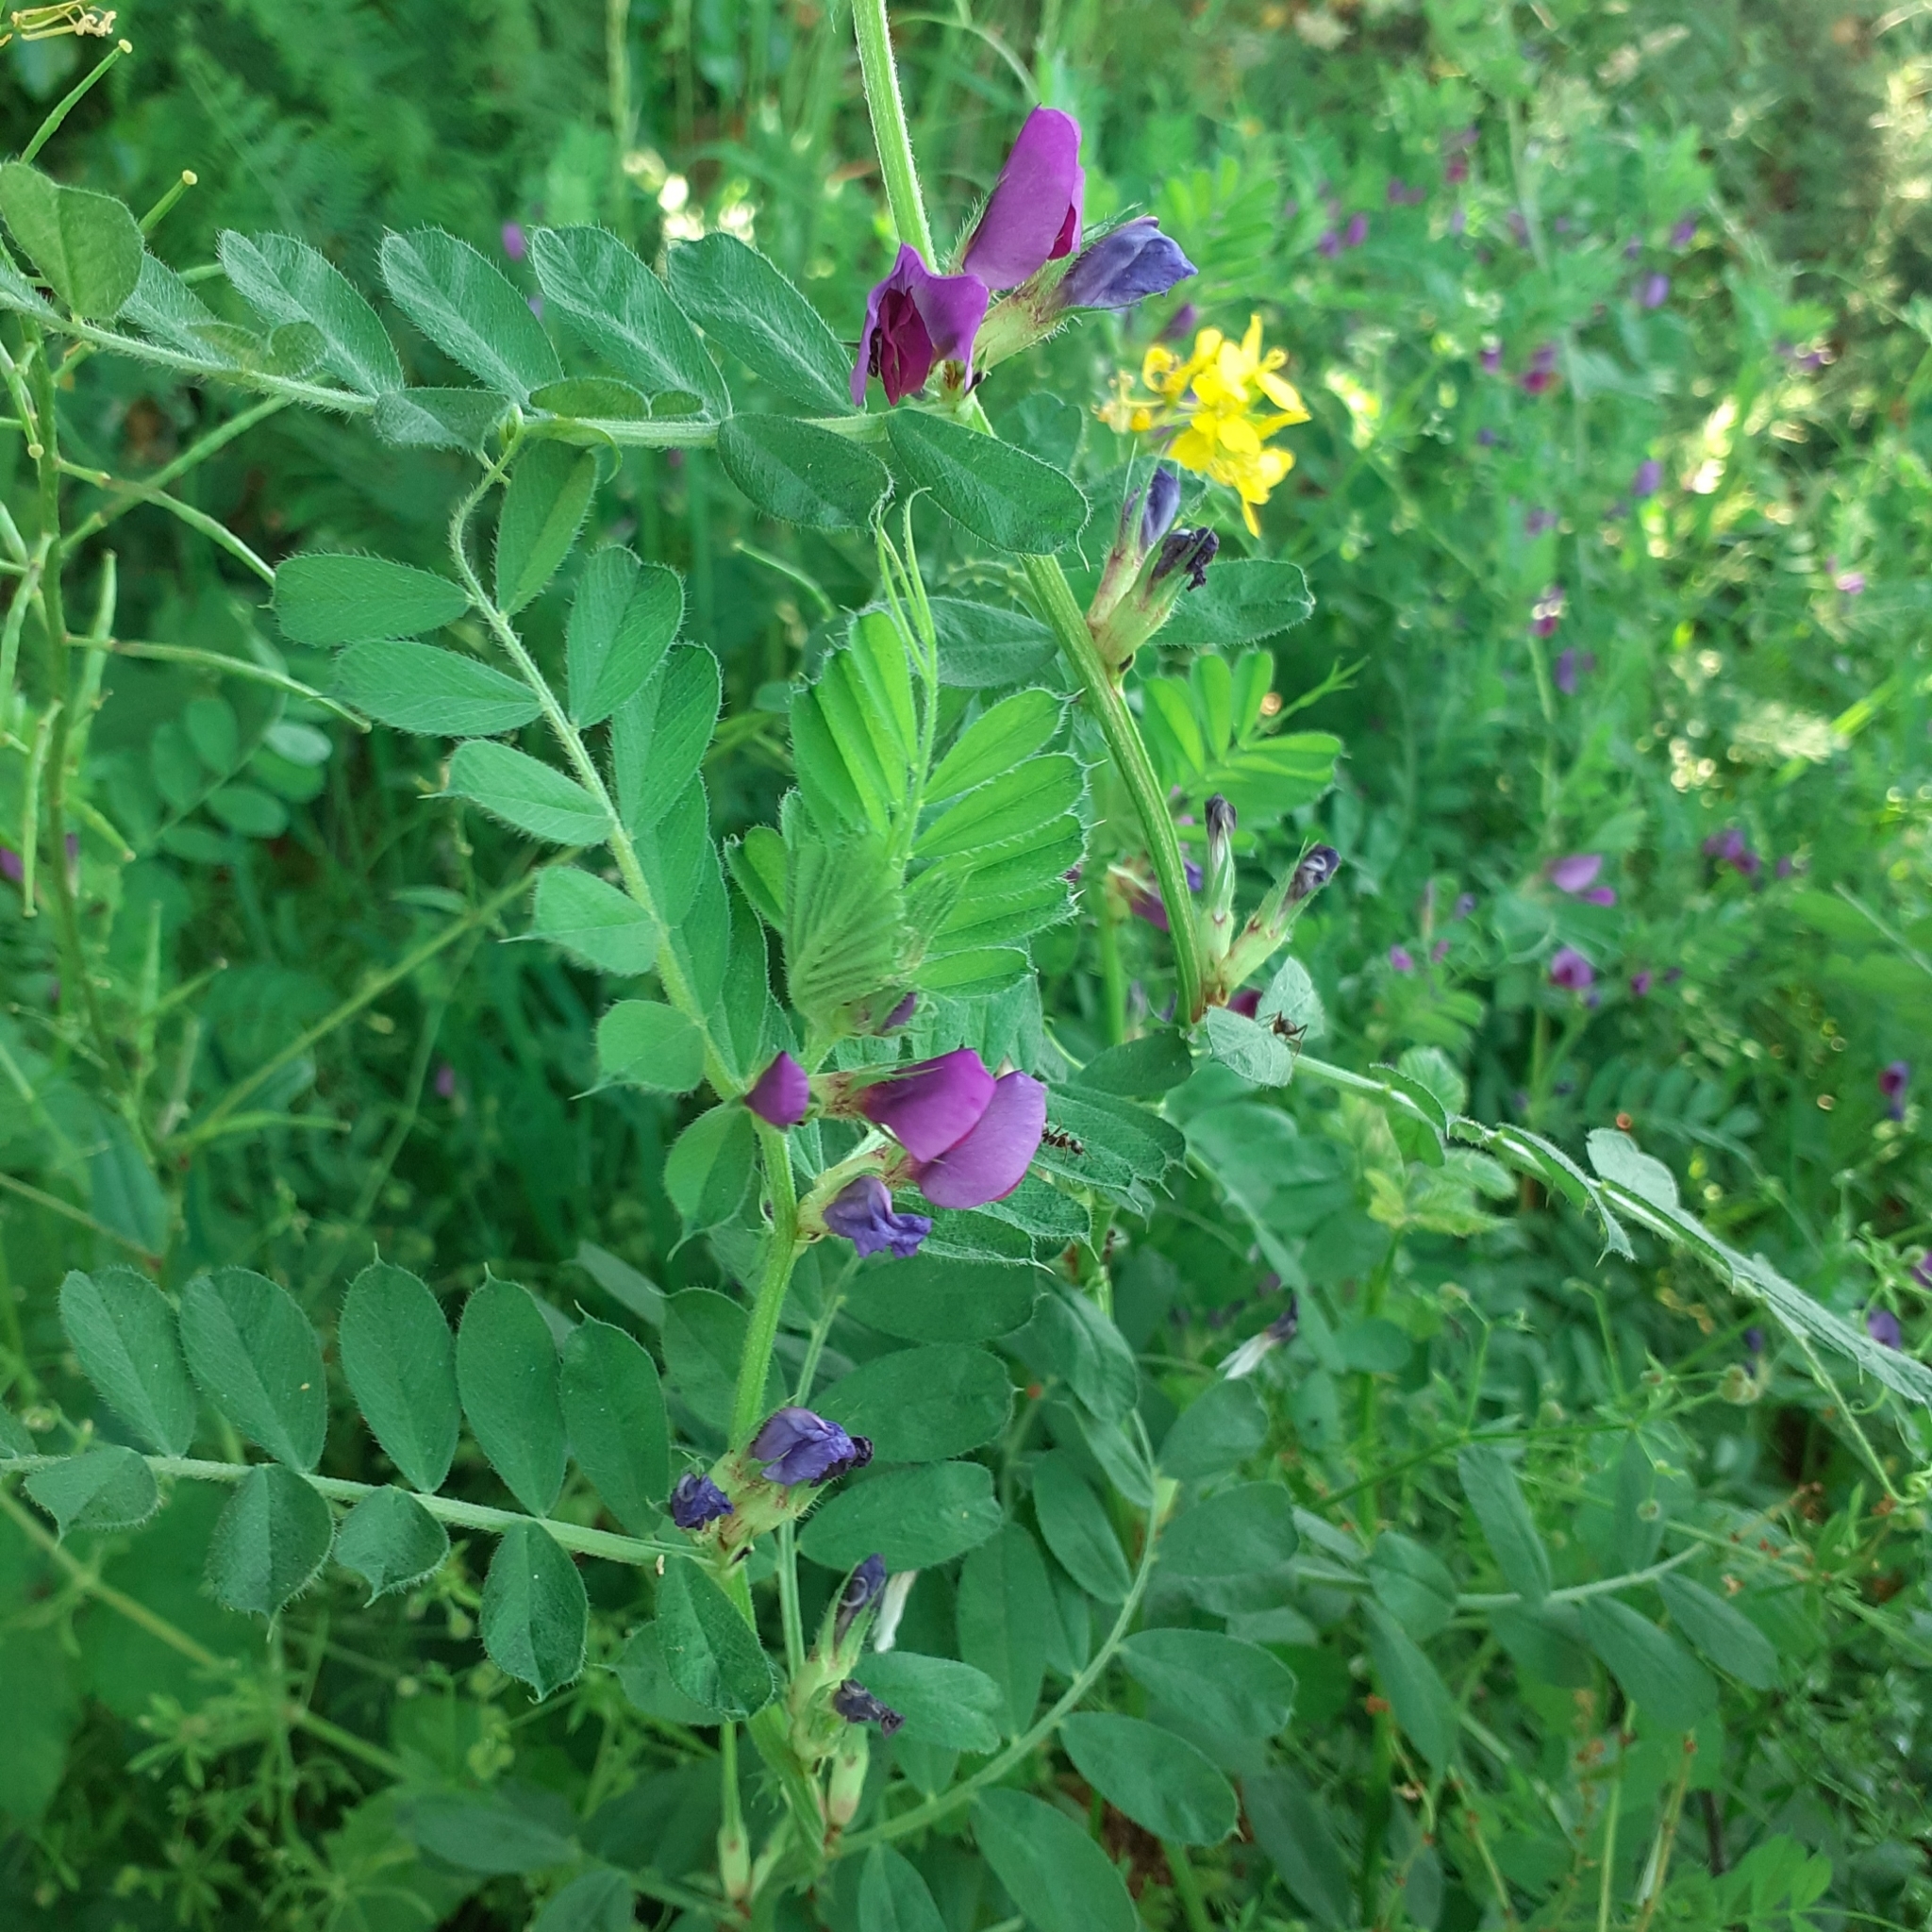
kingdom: Plantae
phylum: Tracheophyta
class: Magnoliopsida
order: Fabales
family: Fabaceae
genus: Vicia
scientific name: Vicia sativa
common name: Garden vetch
